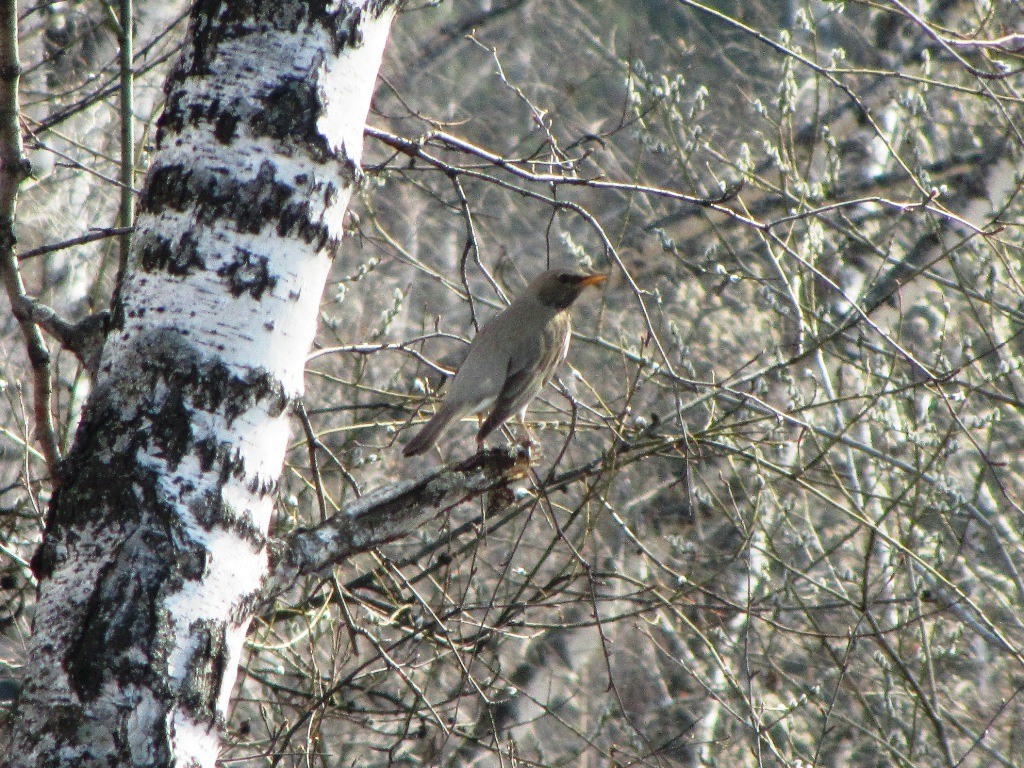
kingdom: Animalia
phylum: Chordata
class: Aves
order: Passeriformes
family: Turdidae
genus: Turdus
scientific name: Turdus atrogularis
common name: Black-throated thrush
